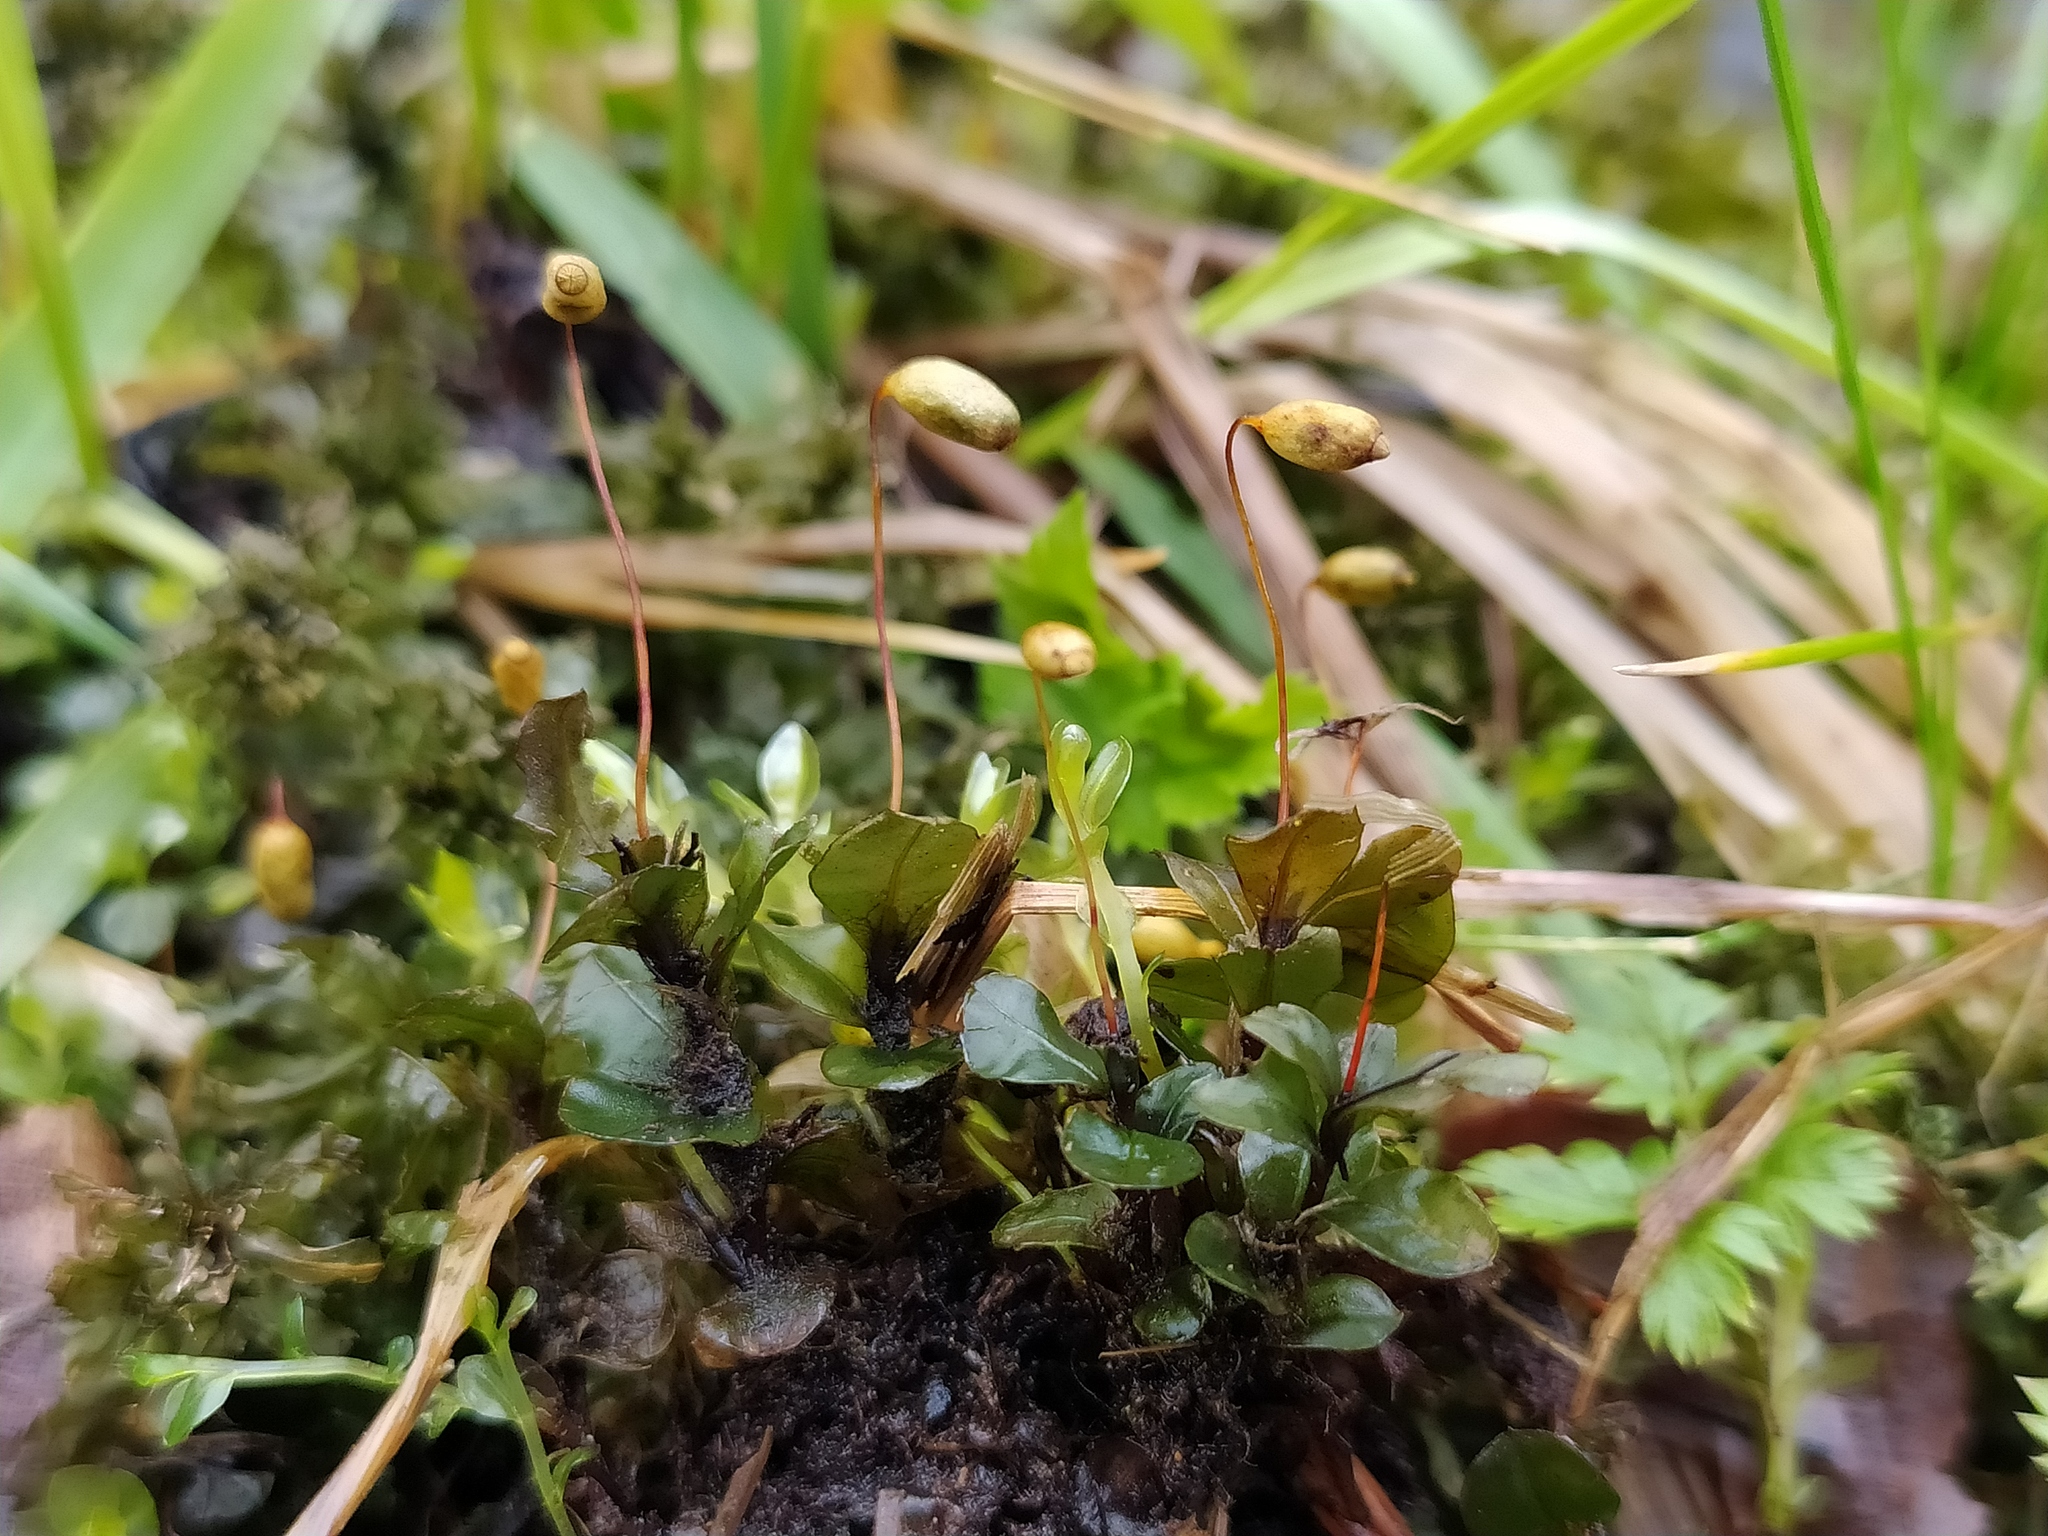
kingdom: Plantae
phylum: Bryophyta
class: Bryopsida
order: Bryales
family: Mniaceae
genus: Rhizomnium
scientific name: Rhizomnium punctatum
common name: Dotted leafy moss
